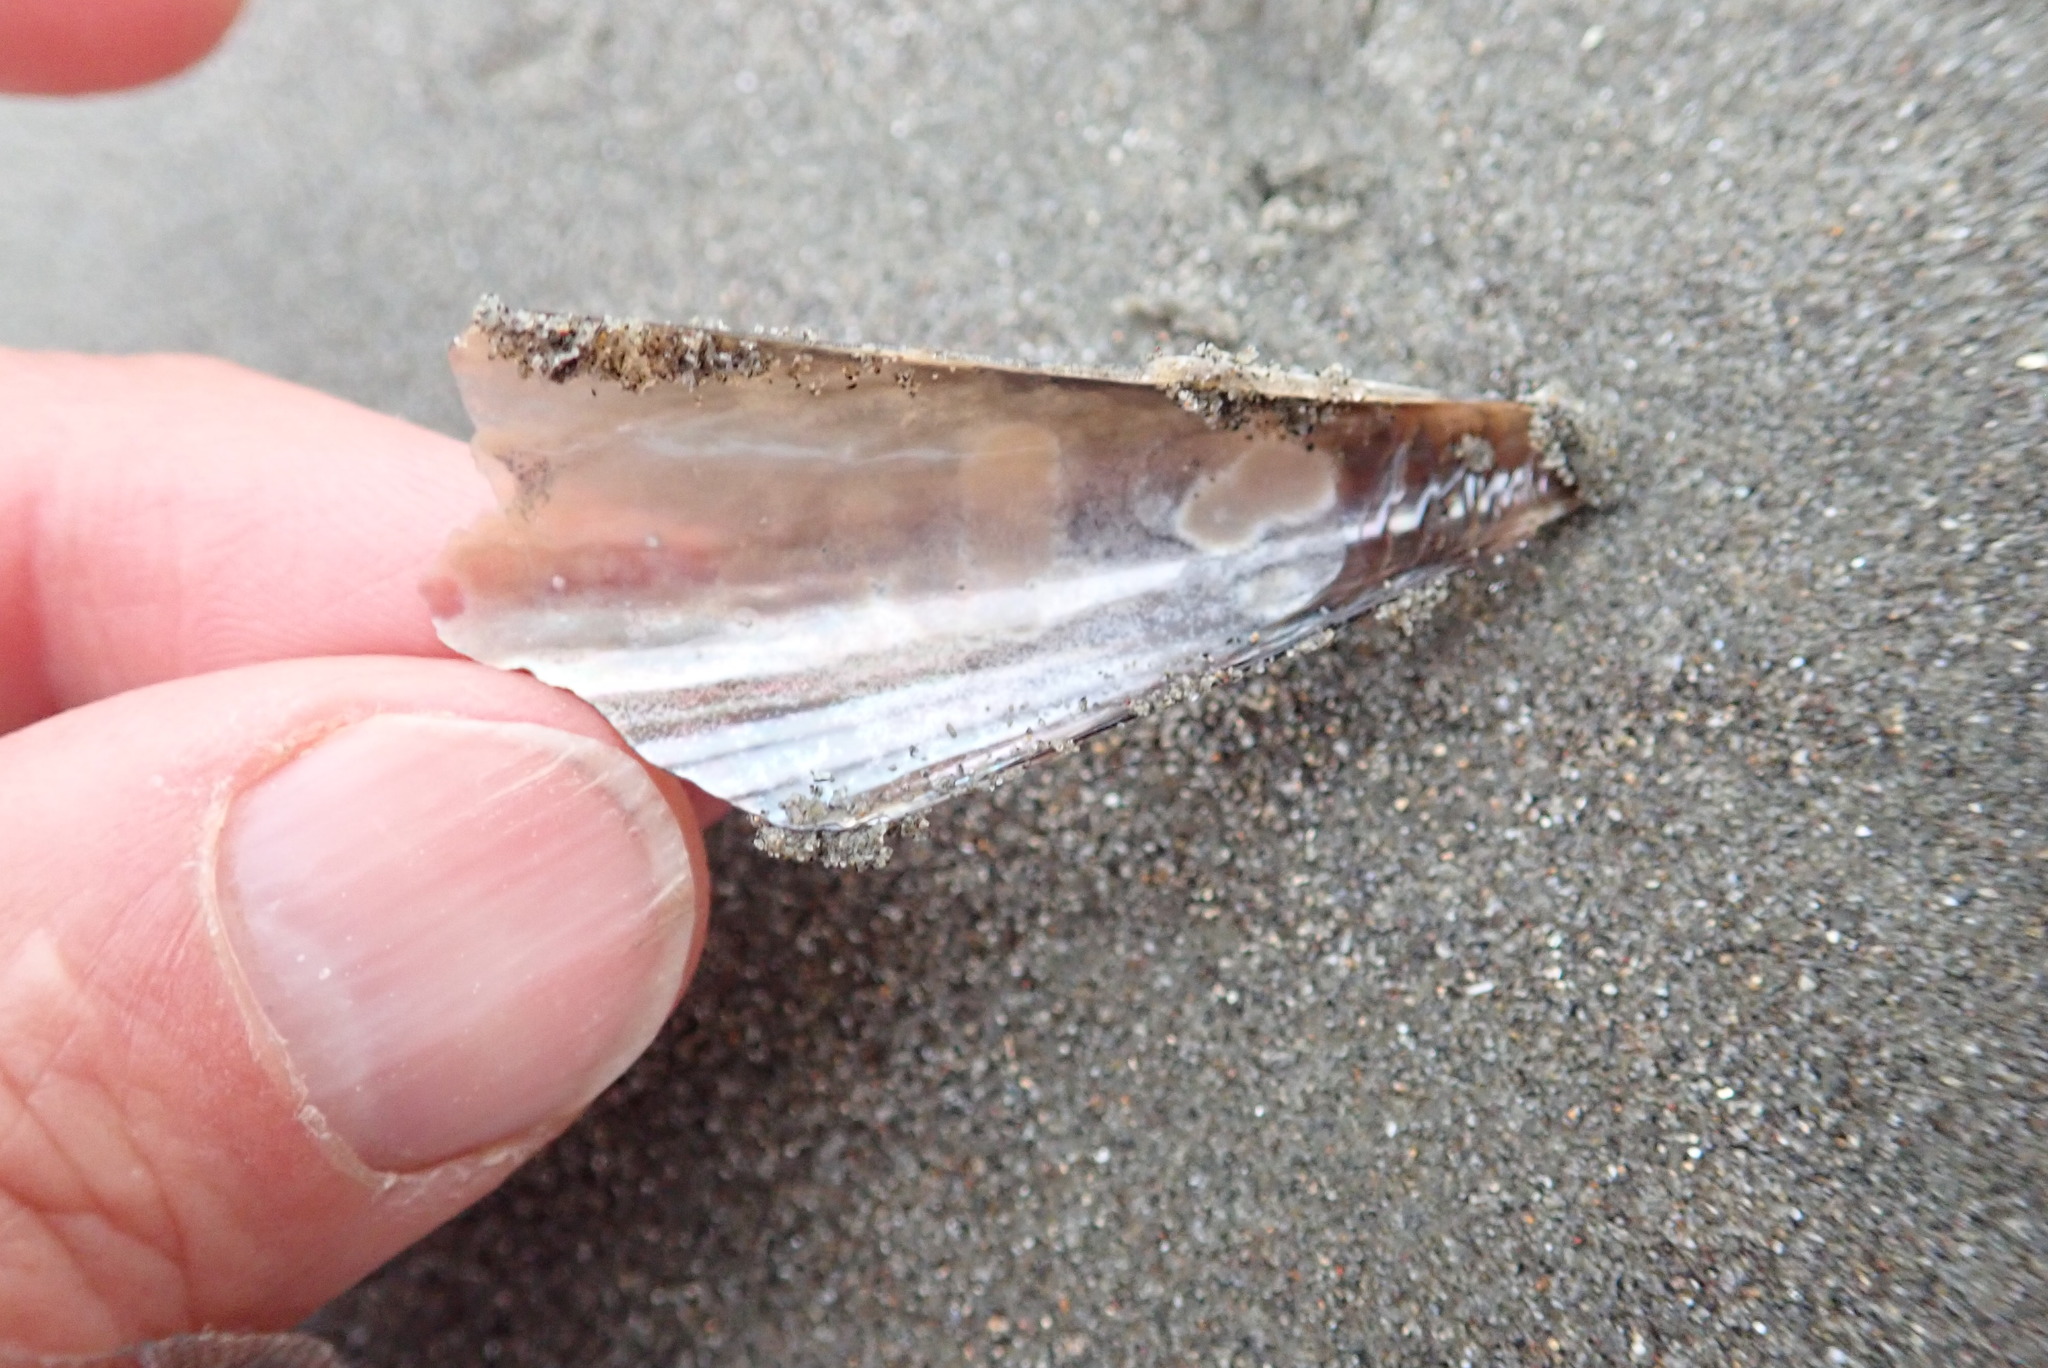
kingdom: Animalia
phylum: Mollusca
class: Bivalvia
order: Ostreida
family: Pinnidae
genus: Atrina
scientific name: Atrina zelandica
